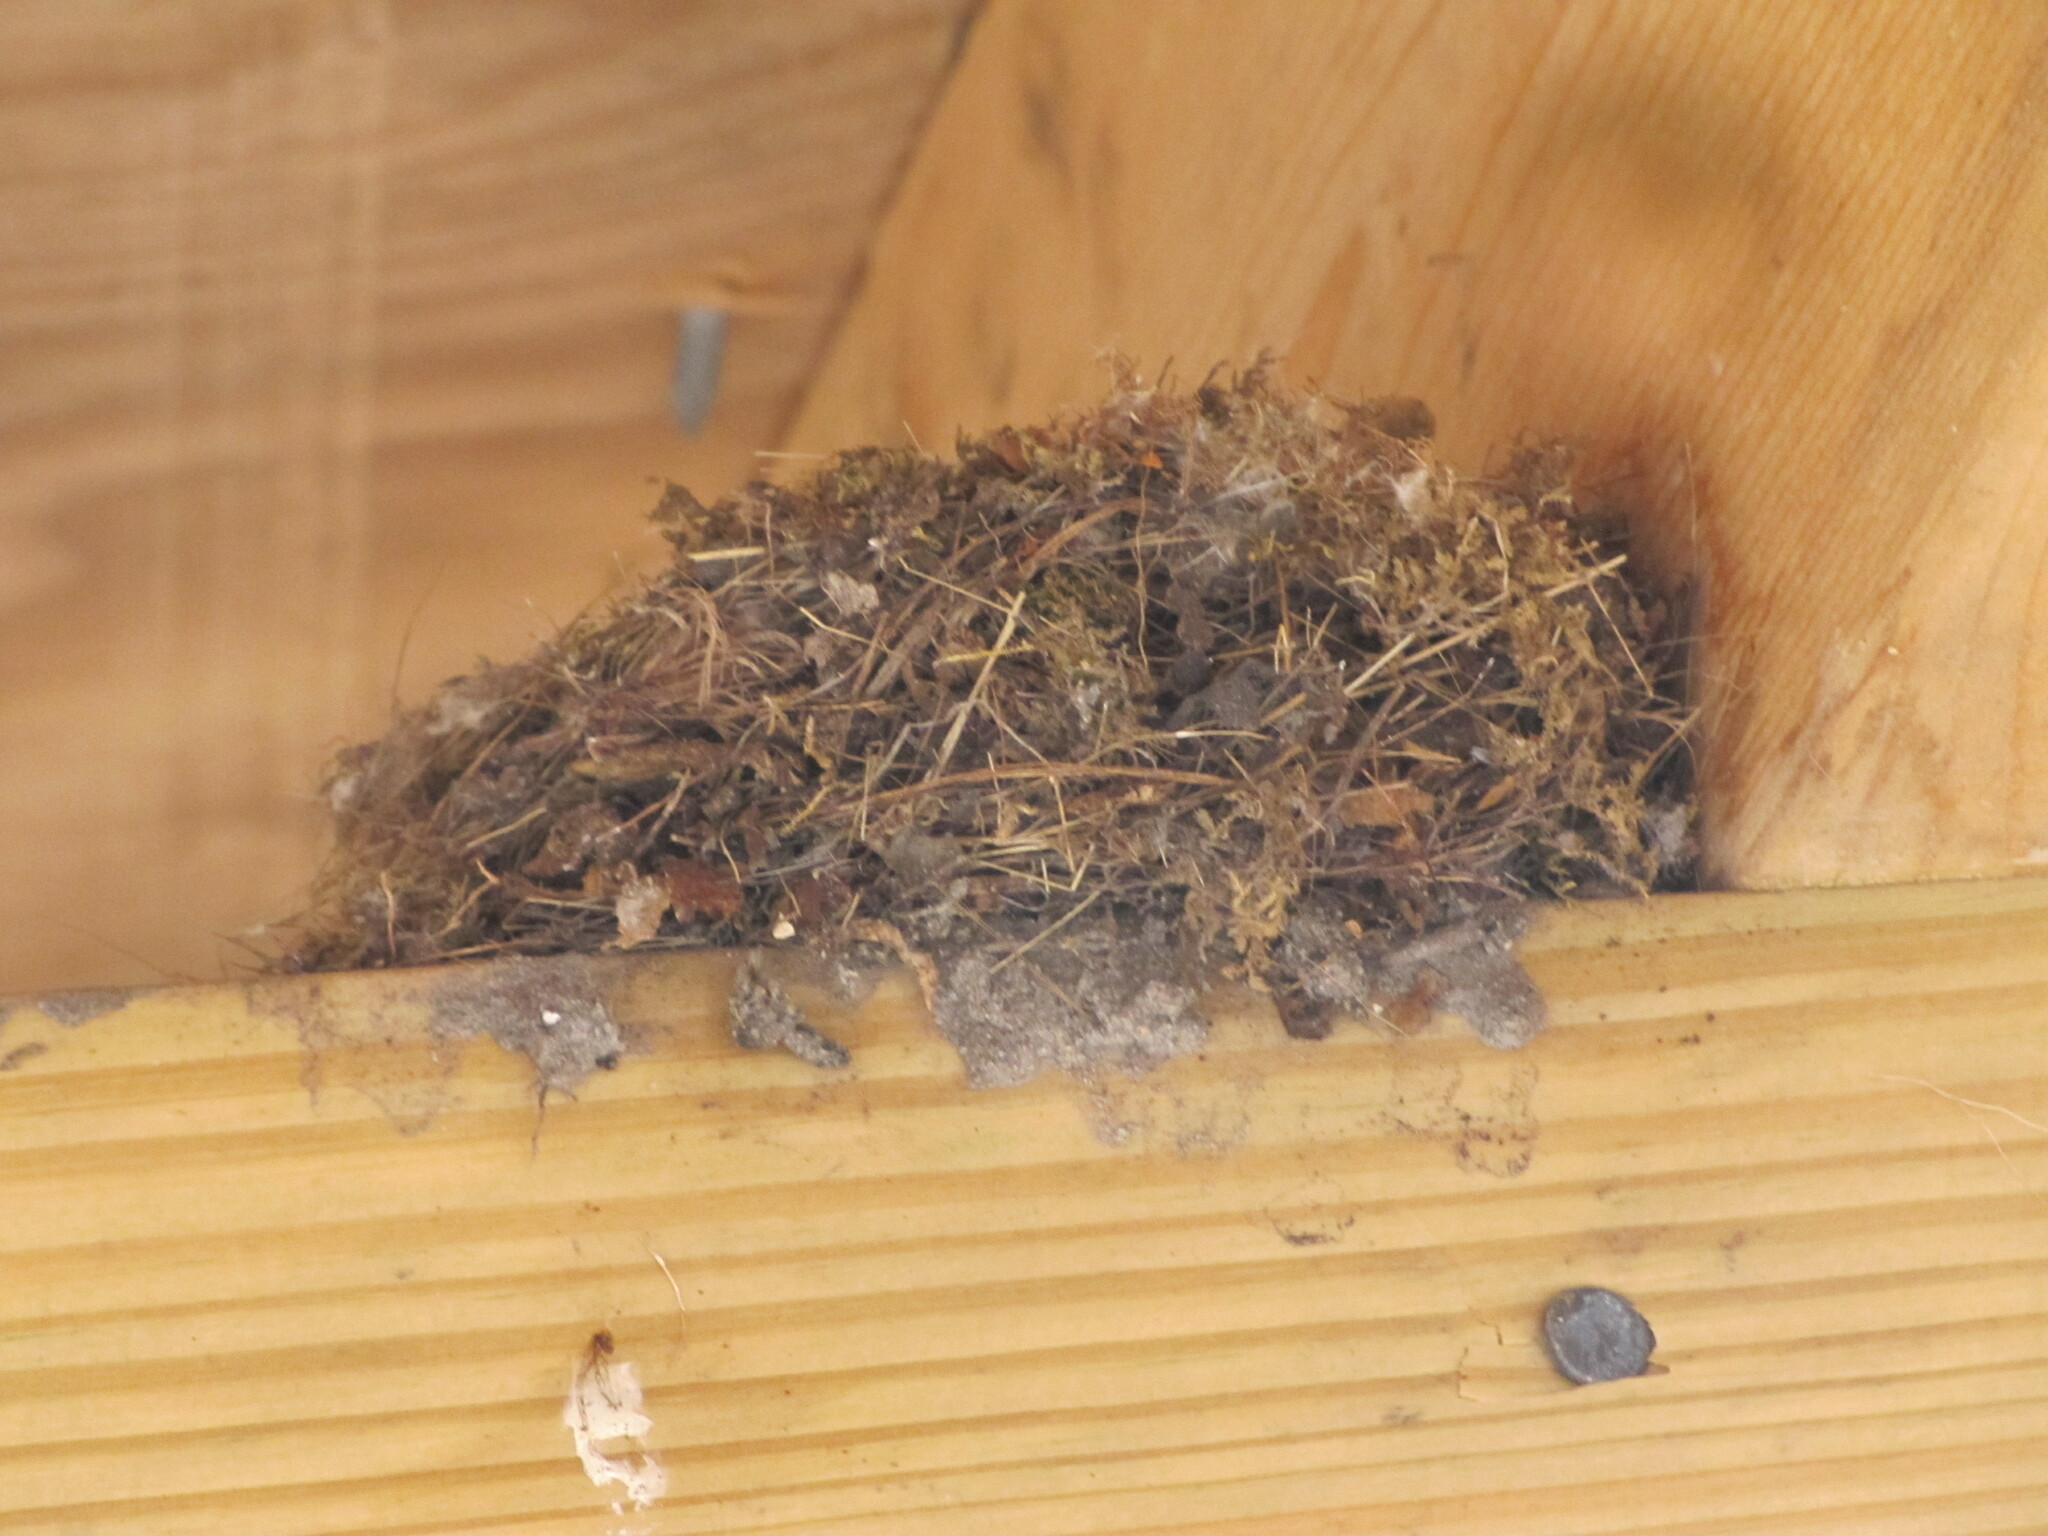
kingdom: Animalia
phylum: Chordata
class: Aves
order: Passeriformes
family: Tyrannidae
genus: Sayornis
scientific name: Sayornis phoebe
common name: Eastern phoebe
